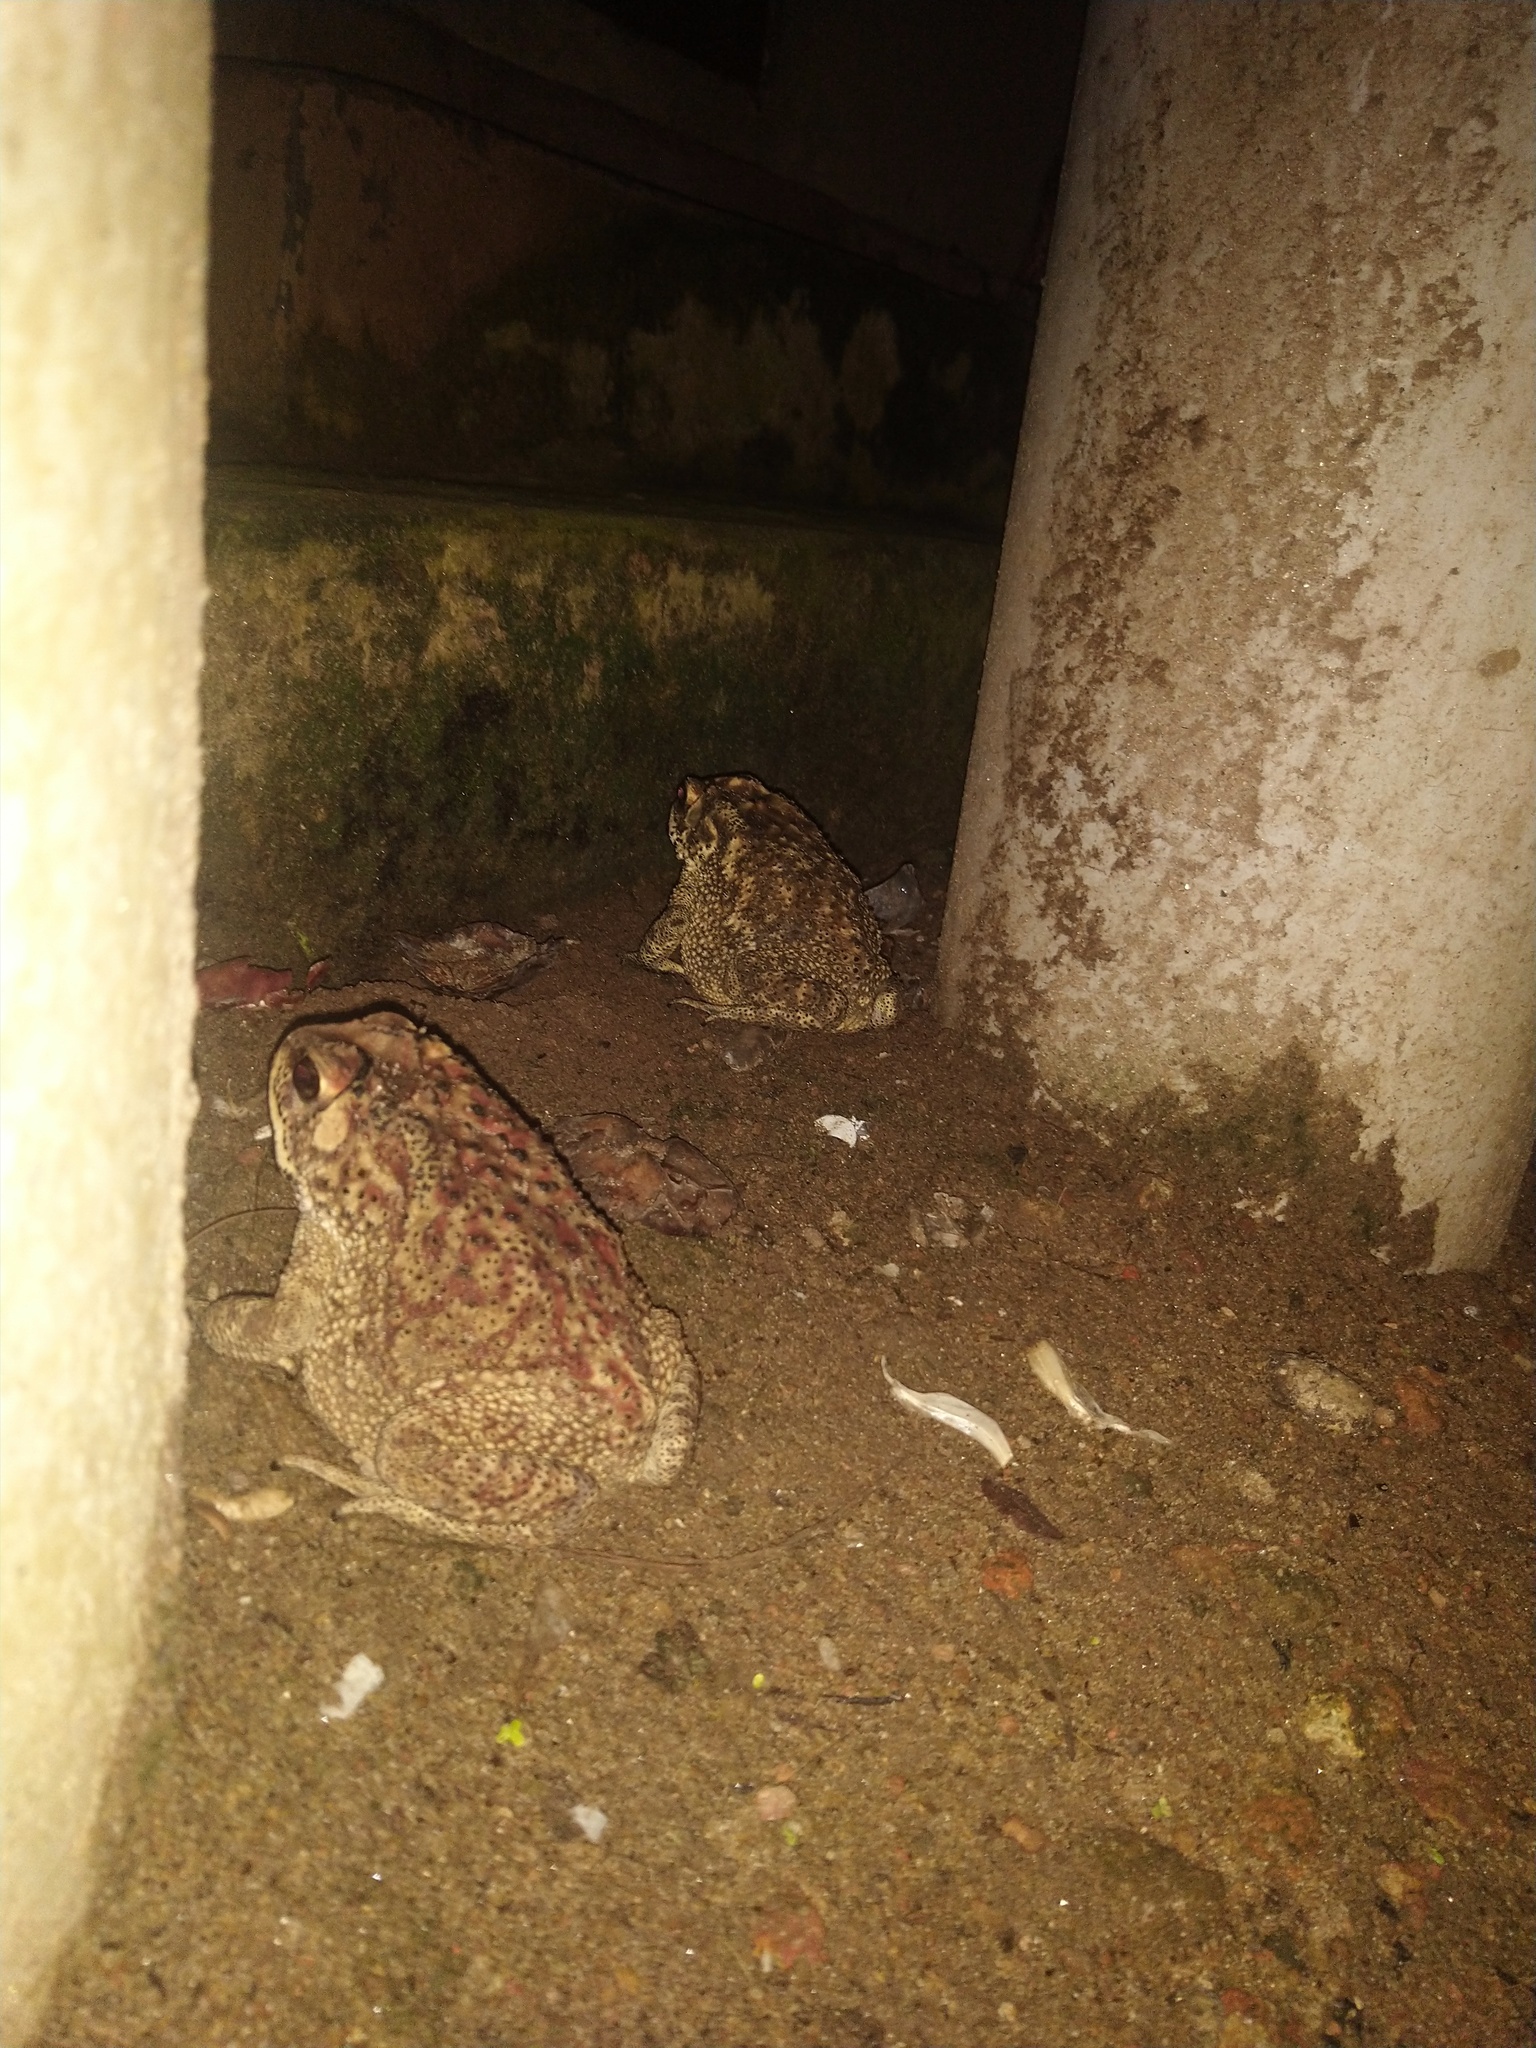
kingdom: Animalia
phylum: Chordata
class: Amphibia
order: Anura
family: Bufonidae
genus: Duttaphrynus
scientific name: Duttaphrynus melanostictus
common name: Common sunda toad
